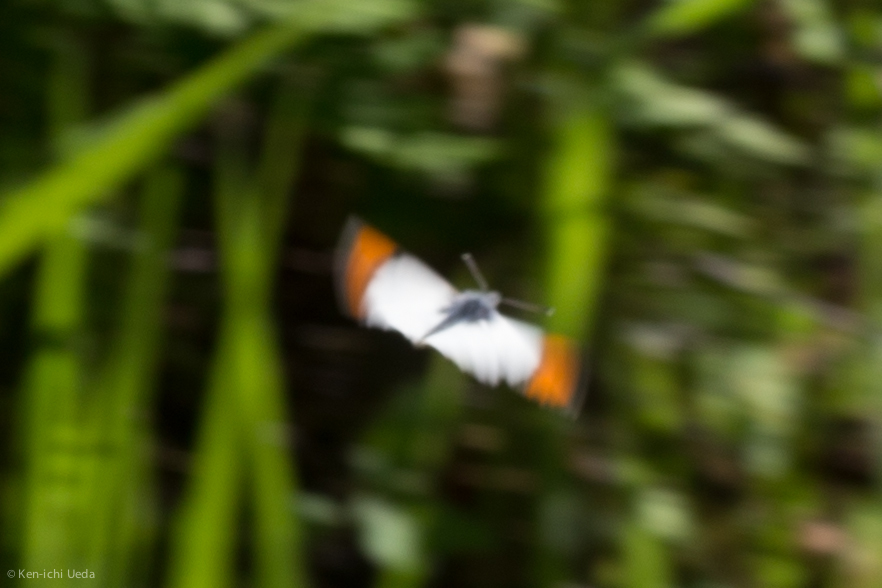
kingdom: Animalia
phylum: Arthropoda
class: Insecta
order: Lepidoptera
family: Pieridae
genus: Anthocharis
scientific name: Anthocharis sara
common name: Sara's orangetip
